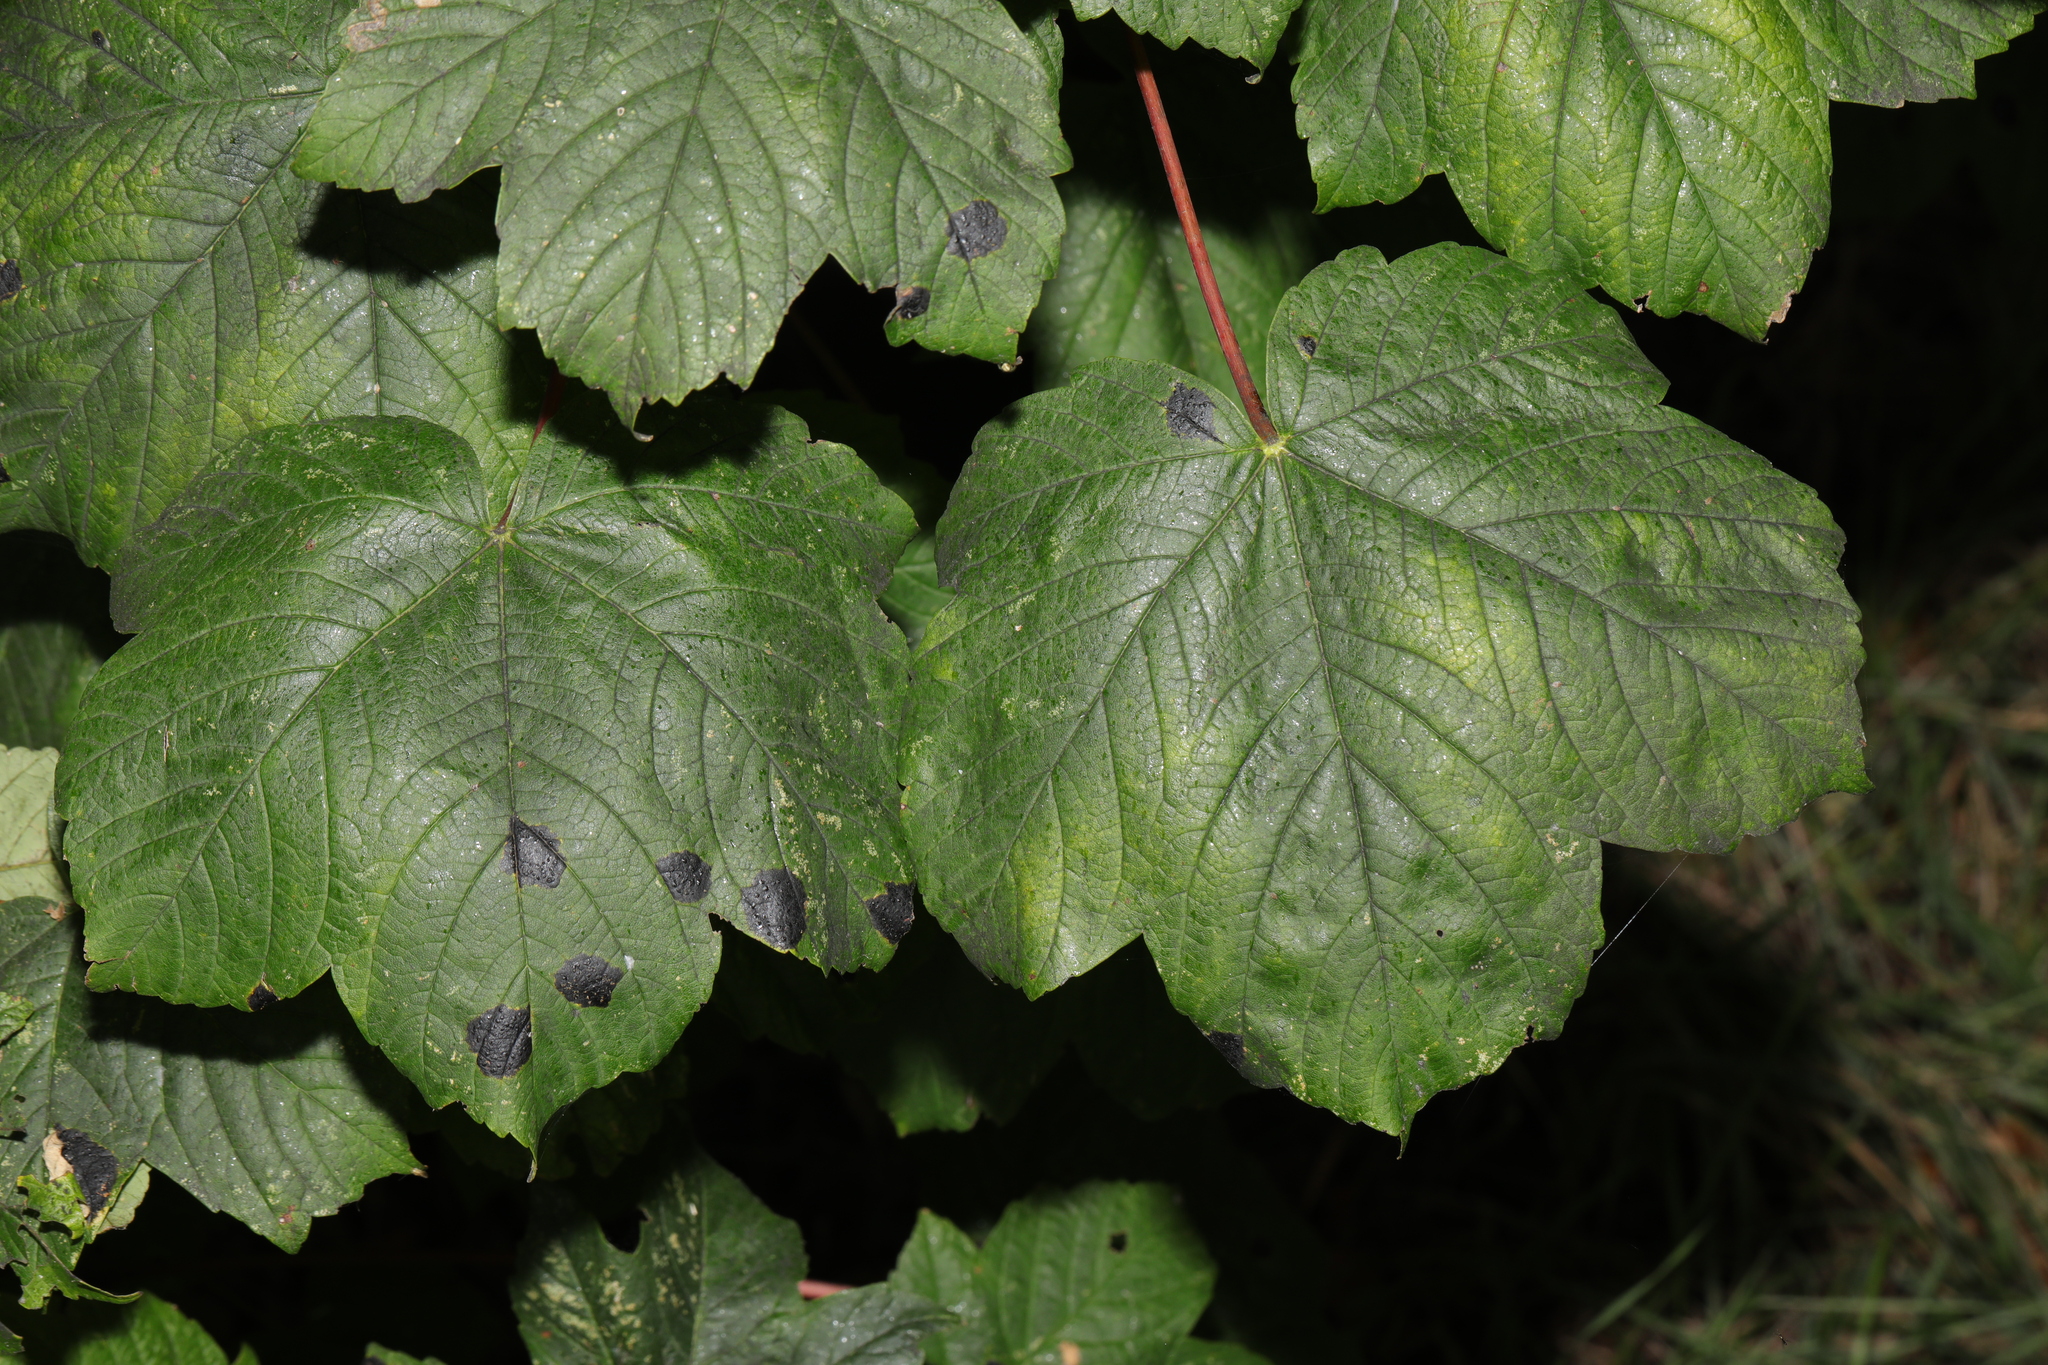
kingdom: Plantae
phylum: Tracheophyta
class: Magnoliopsida
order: Sapindales
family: Sapindaceae
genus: Acer
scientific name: Acer pseudoplatanus
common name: Sycamore
